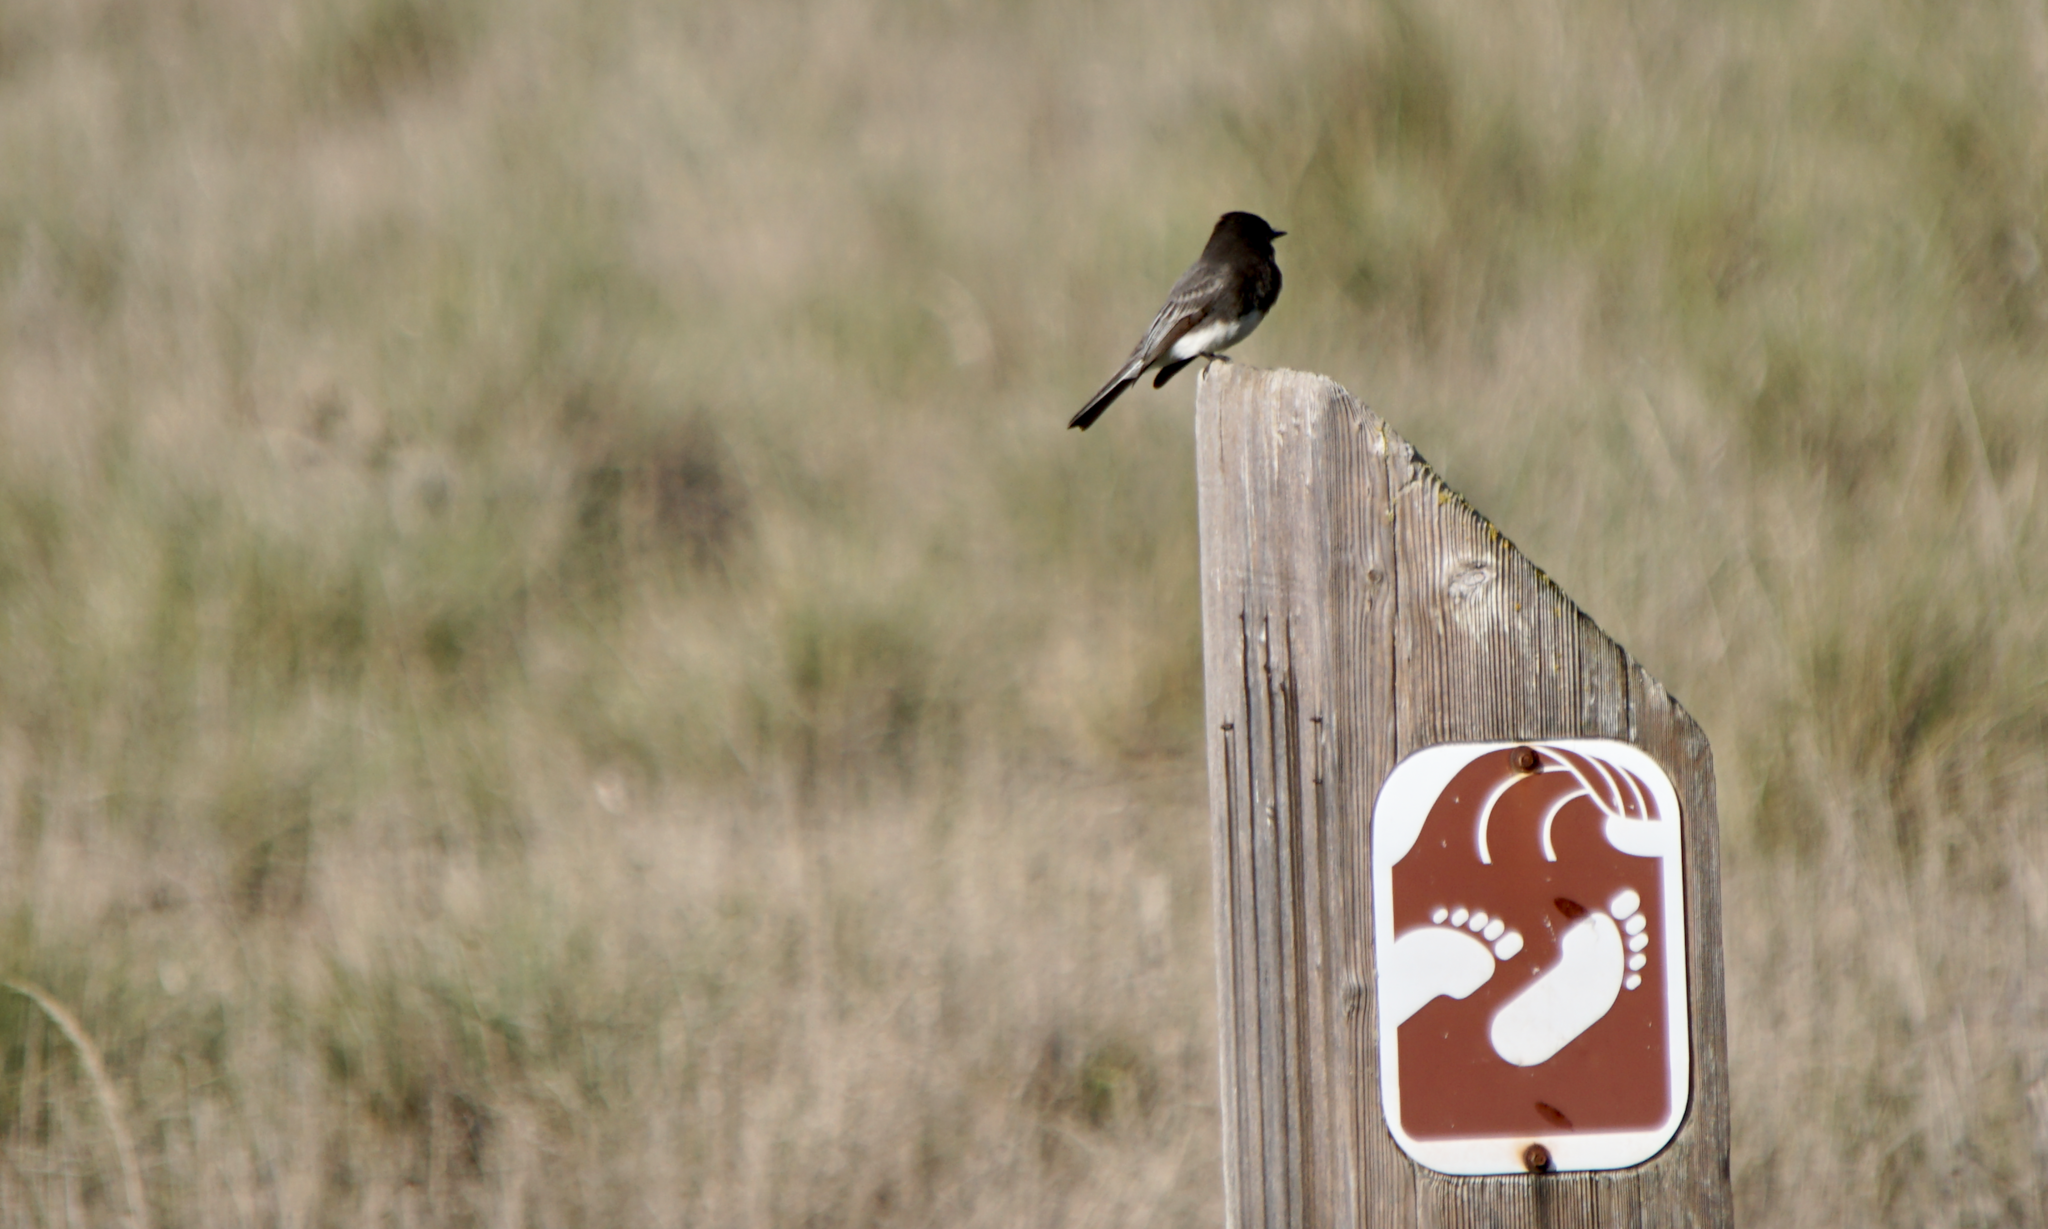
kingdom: Animalia
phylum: Chordata
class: Aves
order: Passeriformes
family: Tyrannidae
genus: Sayornis
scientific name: Sayornis nigricans
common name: Black phoebe
